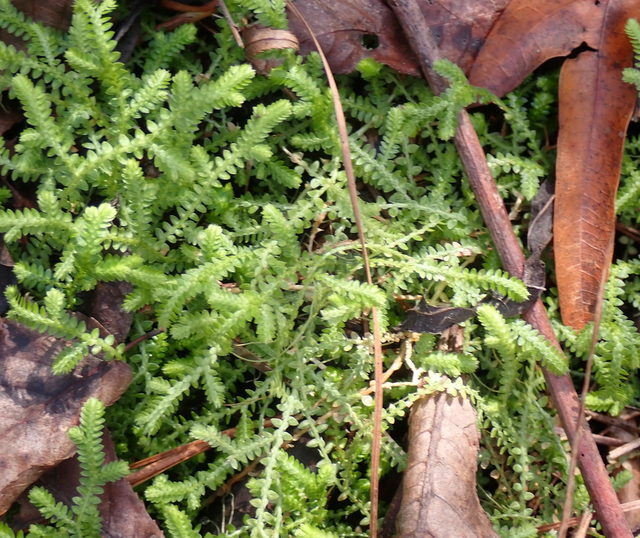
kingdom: Plantae
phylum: Tracheophyta
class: Lycopodiopsida
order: Selaginellales
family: Selaginellaceae
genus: Selaginella
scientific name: Selaginella apoda
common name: Creeping spikemoss
